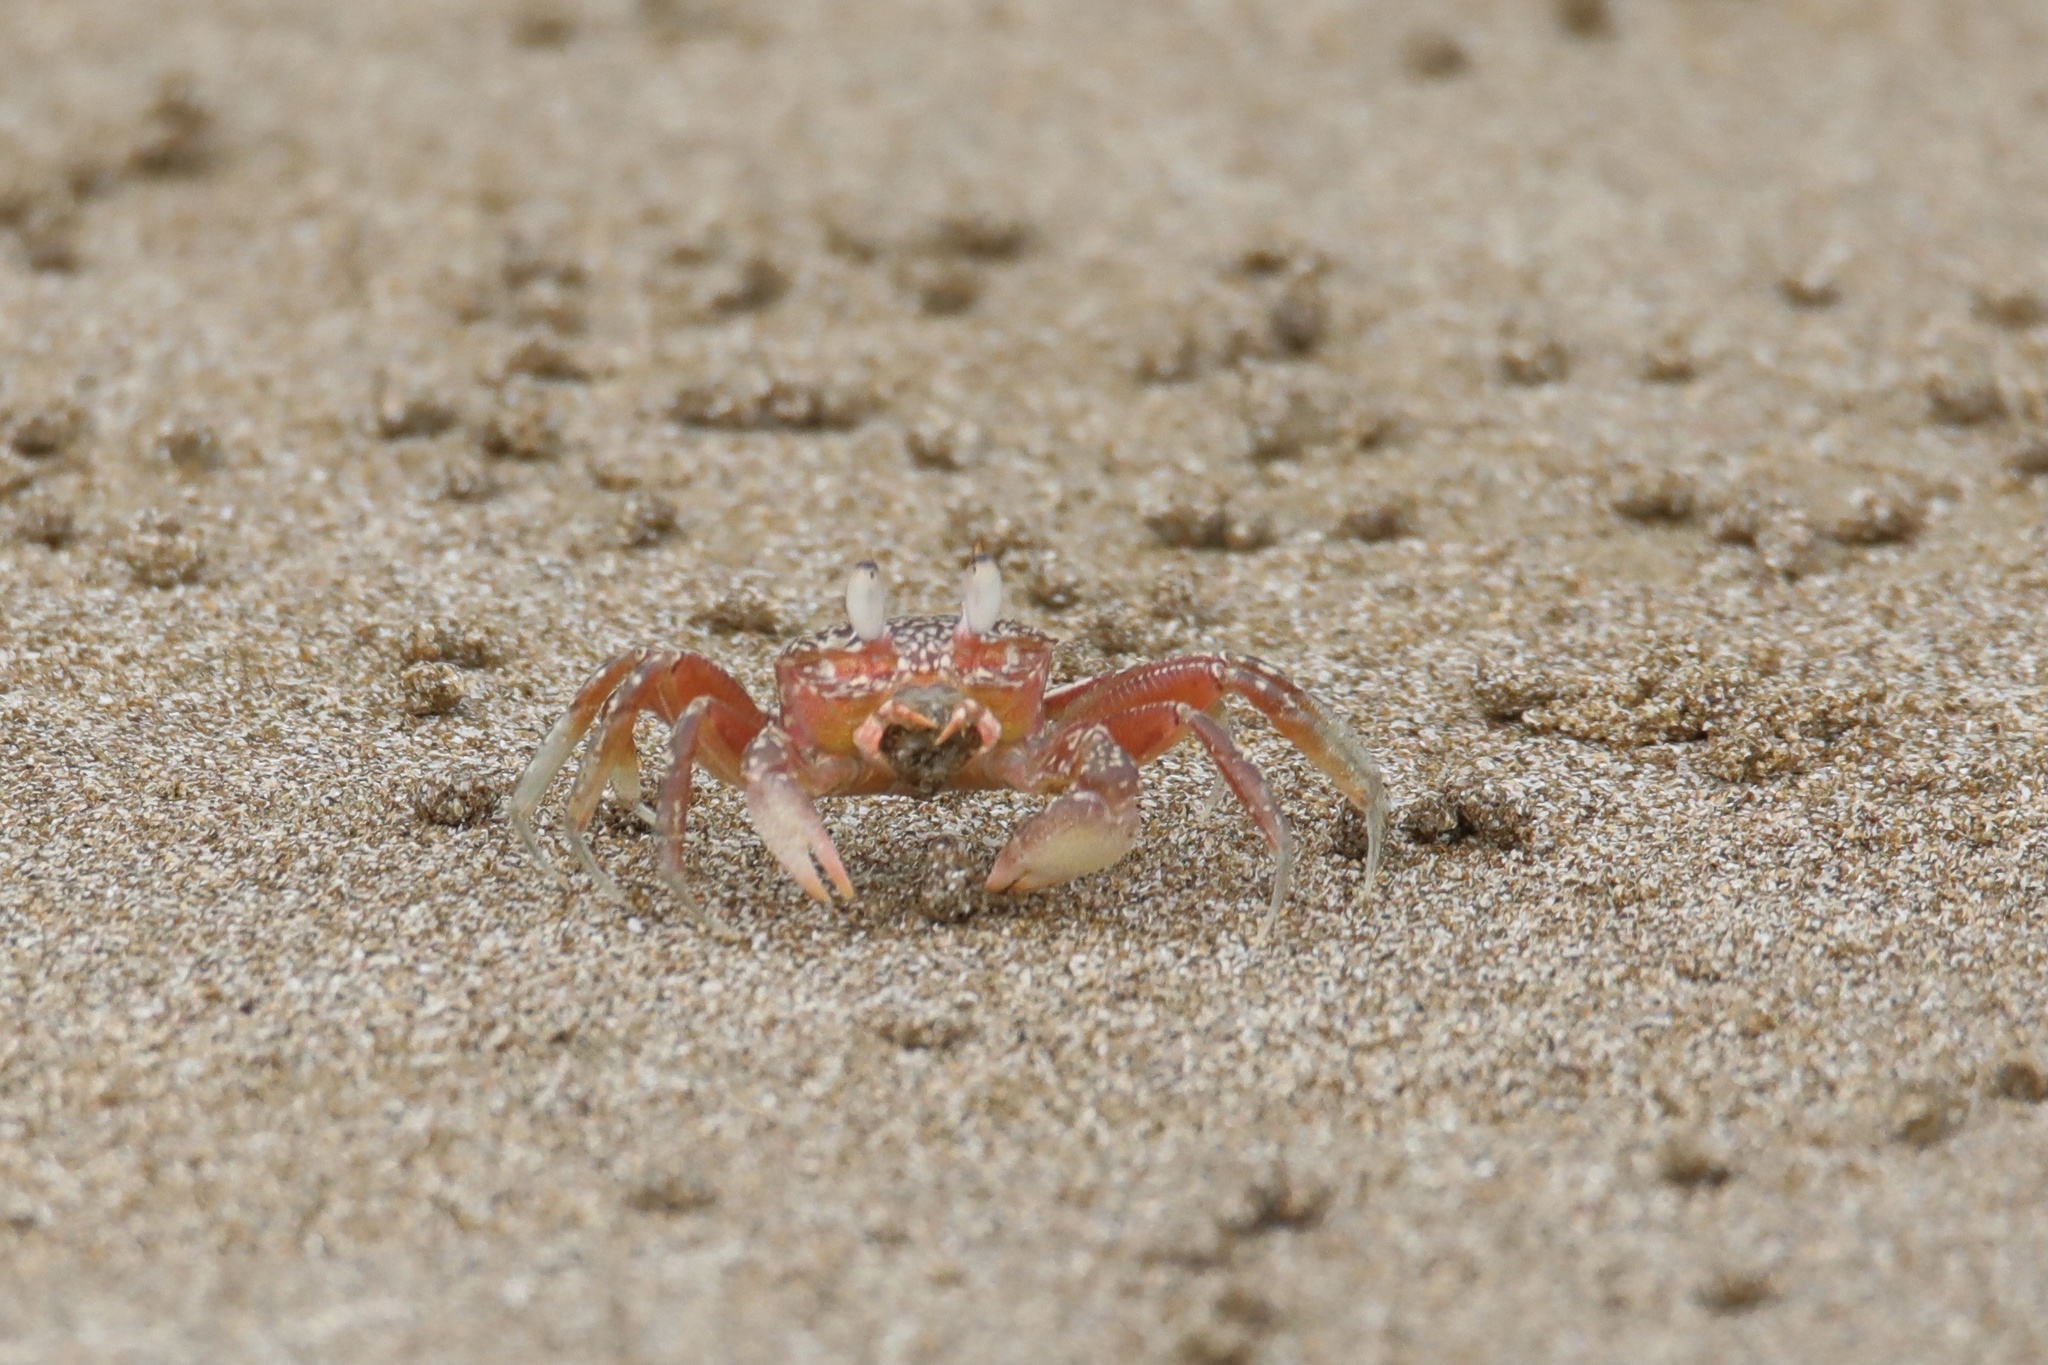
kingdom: Animalia
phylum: Arthropoda
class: Malacostraca
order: Decapoda
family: Ocypodidae
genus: Ocypode
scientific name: Ocypode gaudichaudii
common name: Pacific ghost crab
